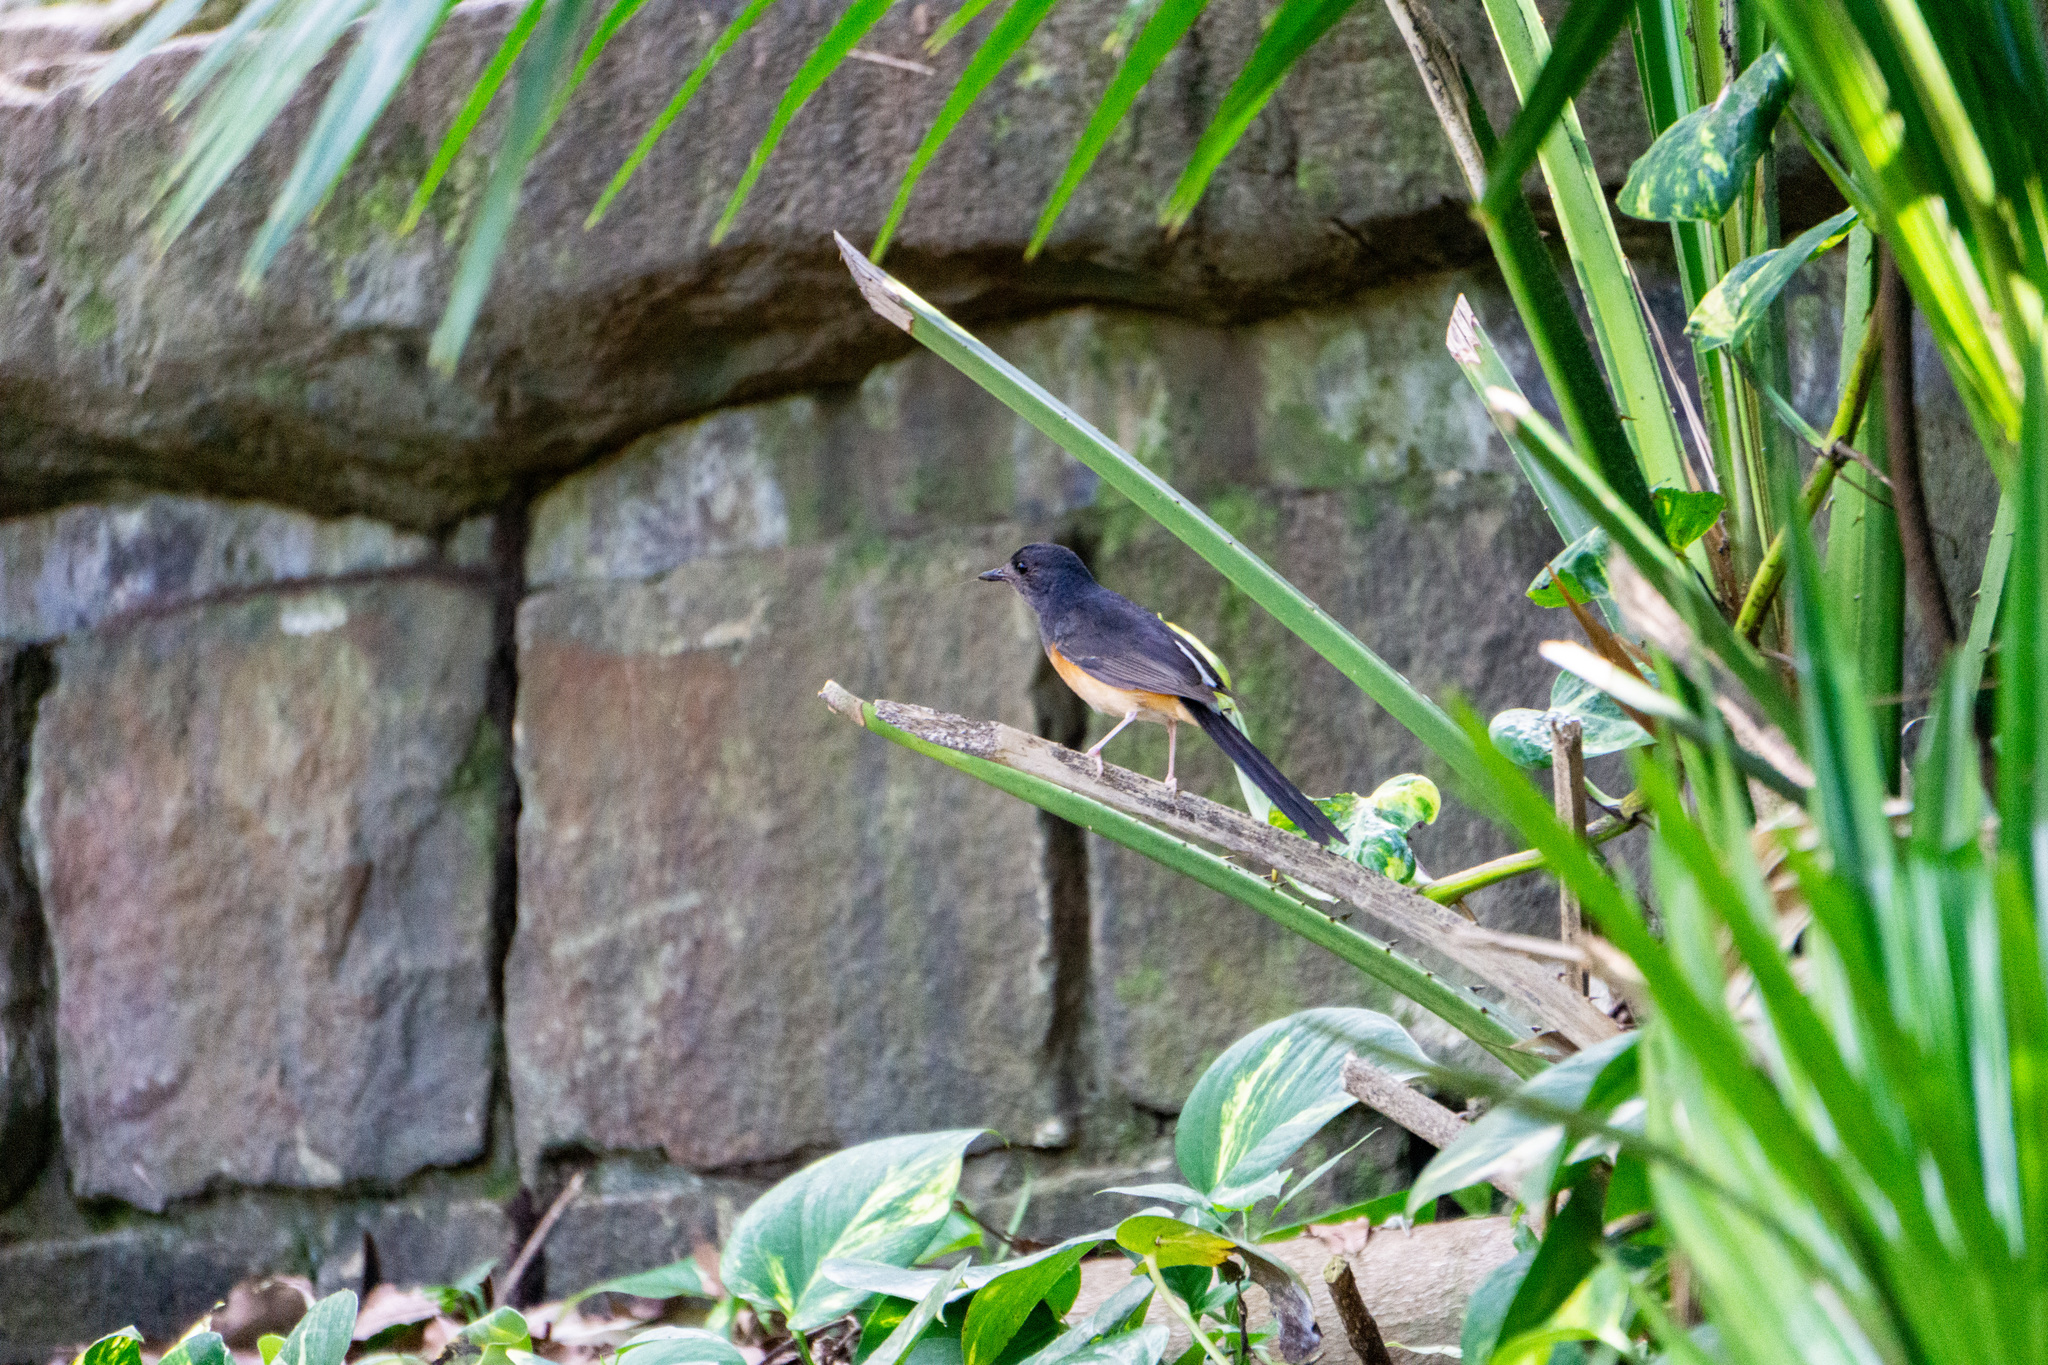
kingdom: Animalia
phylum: Chordata
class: Aves
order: Passeriformes
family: Muscicapidae
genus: Copsychus
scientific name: Copsychus malabaricus
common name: White-rumped shama
